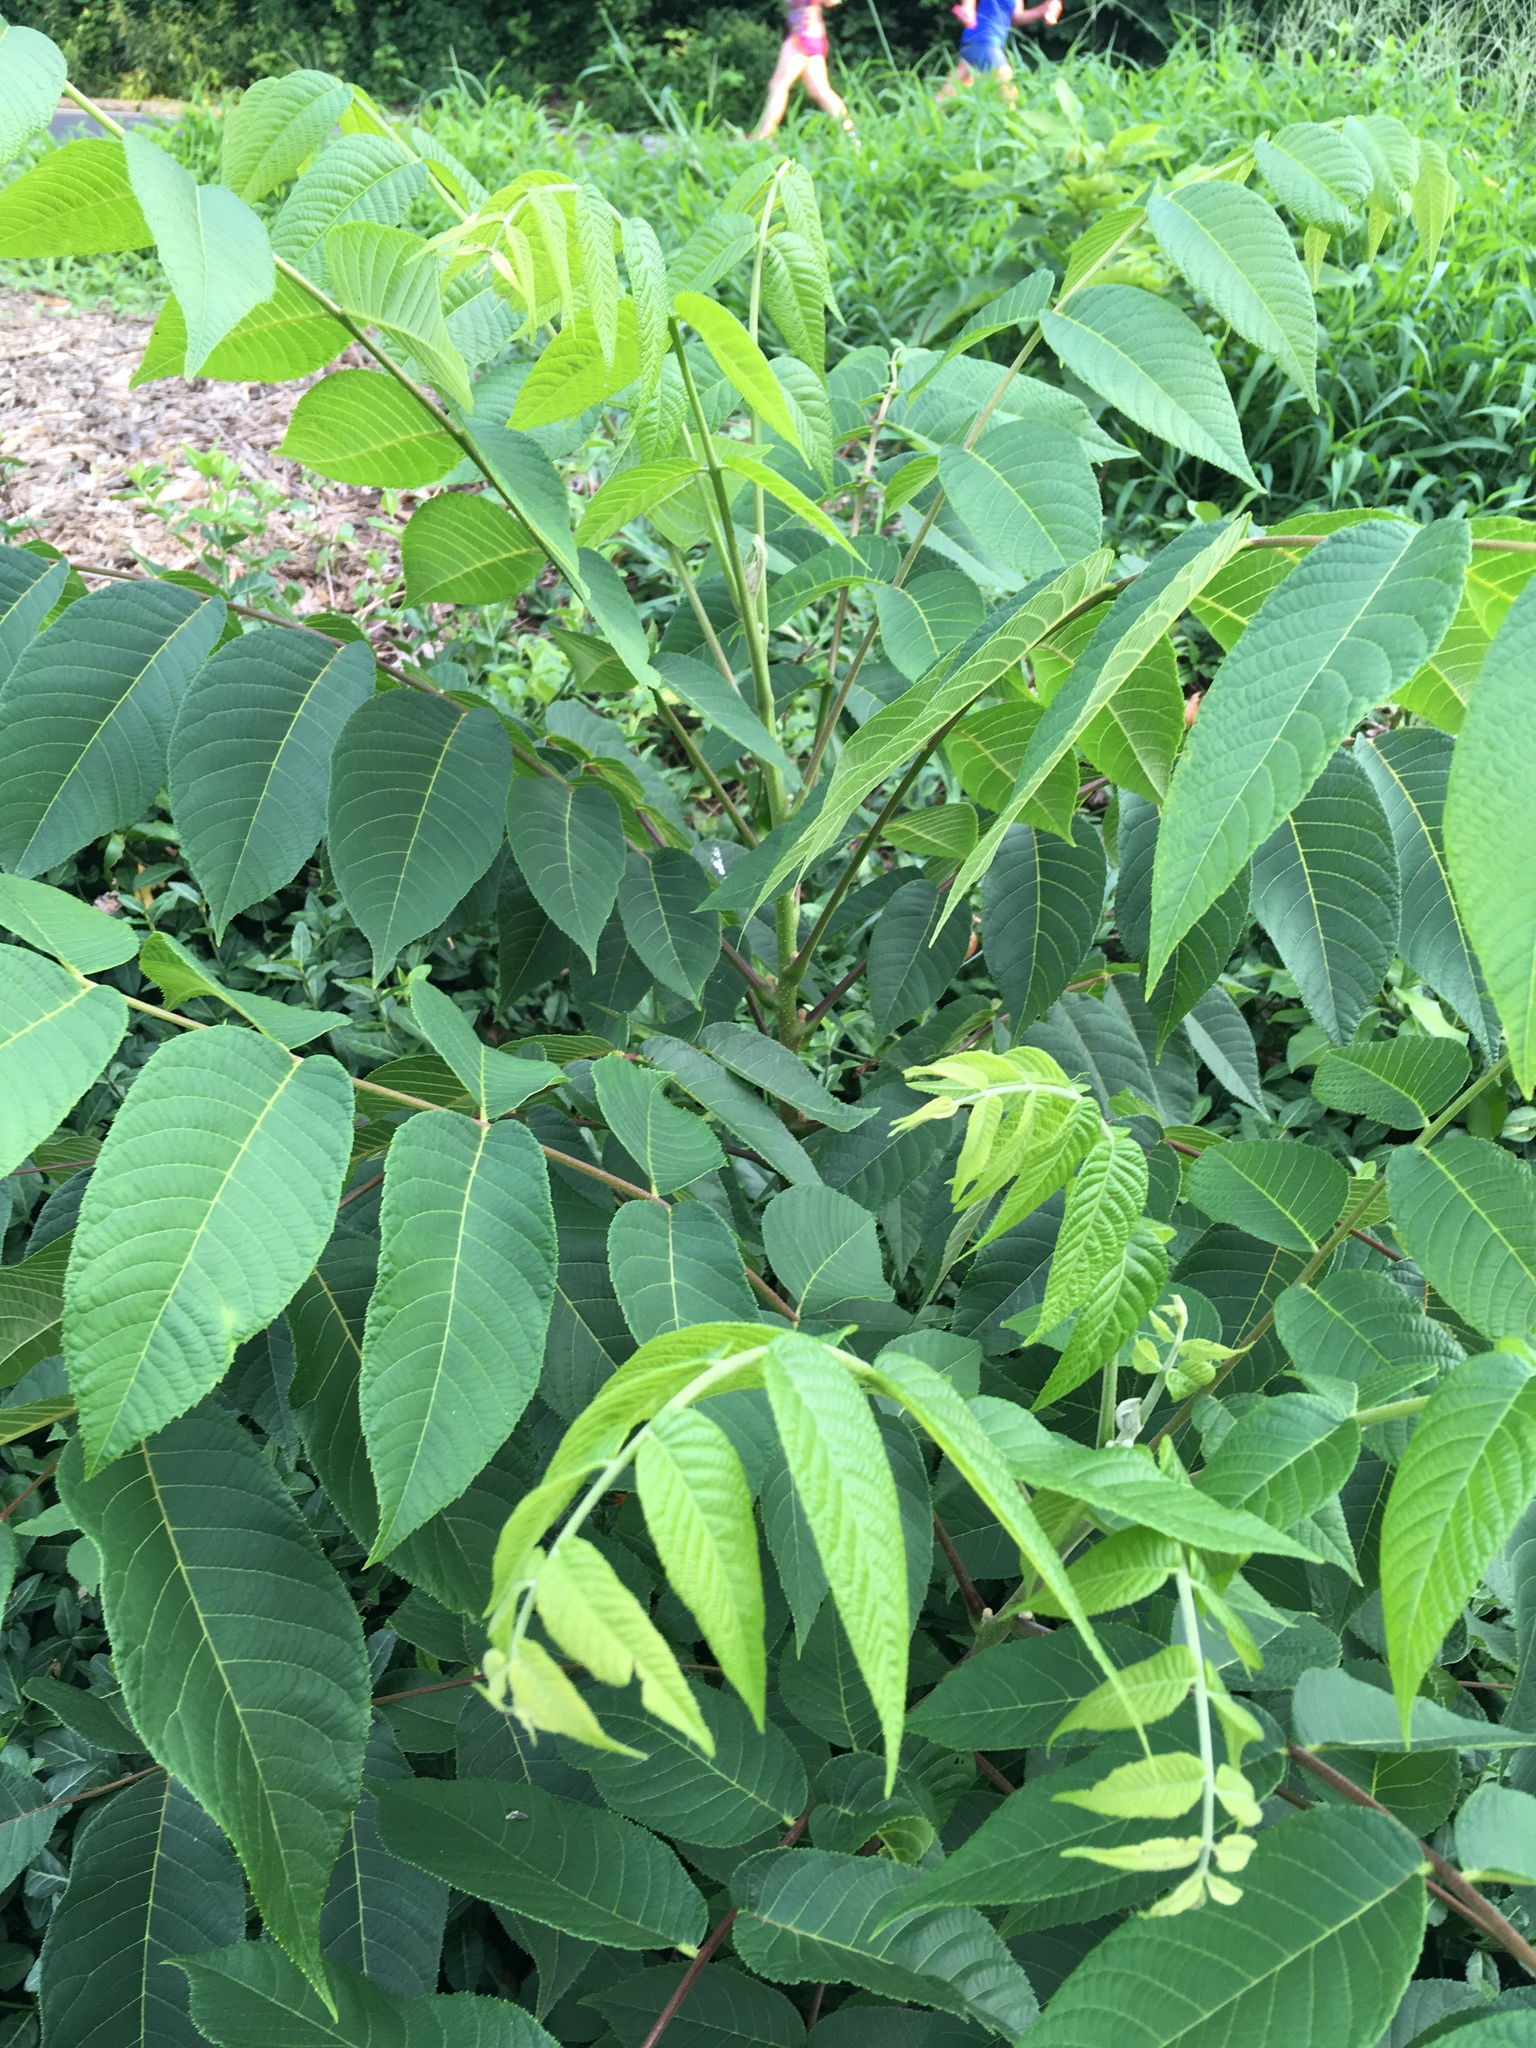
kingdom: Plantae
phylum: Tracheophyta
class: Magnoliopsida
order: Fagales
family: Juglandaceae
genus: Juglans
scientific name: Juglans nigra
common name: Black walnut
